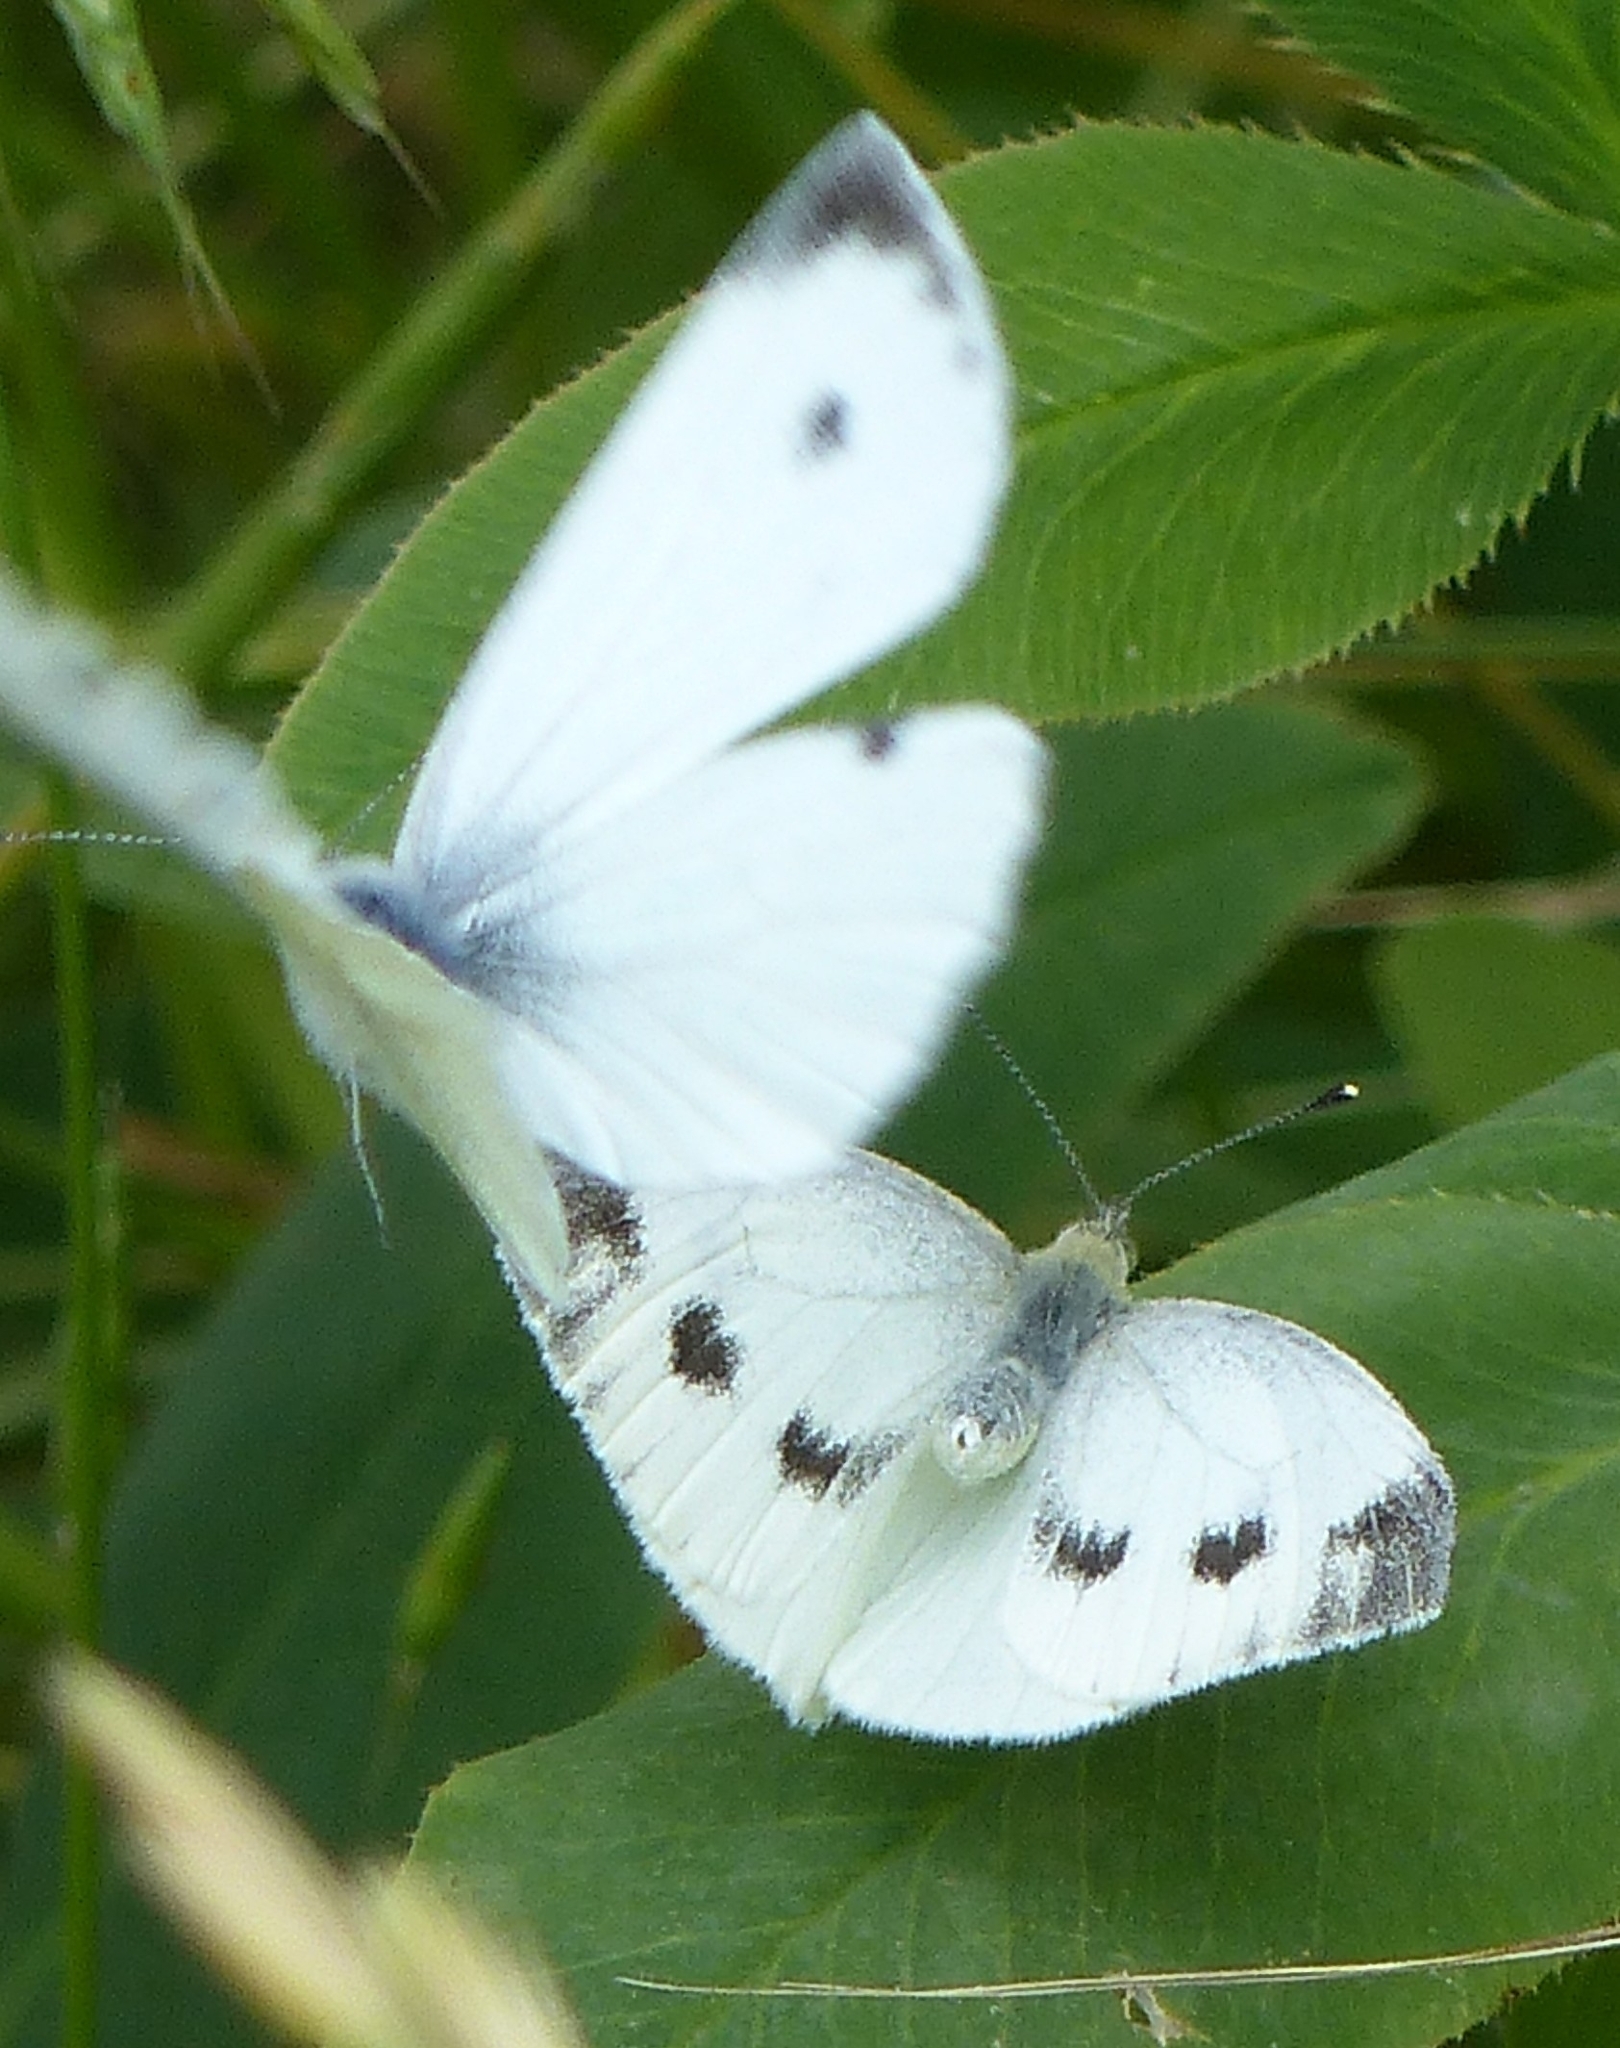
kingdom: Animalia
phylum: Arthropoda
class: Insecta
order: Lepidoptera
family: Pieridae
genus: Pieris
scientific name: Pieris rapae
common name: Small white
